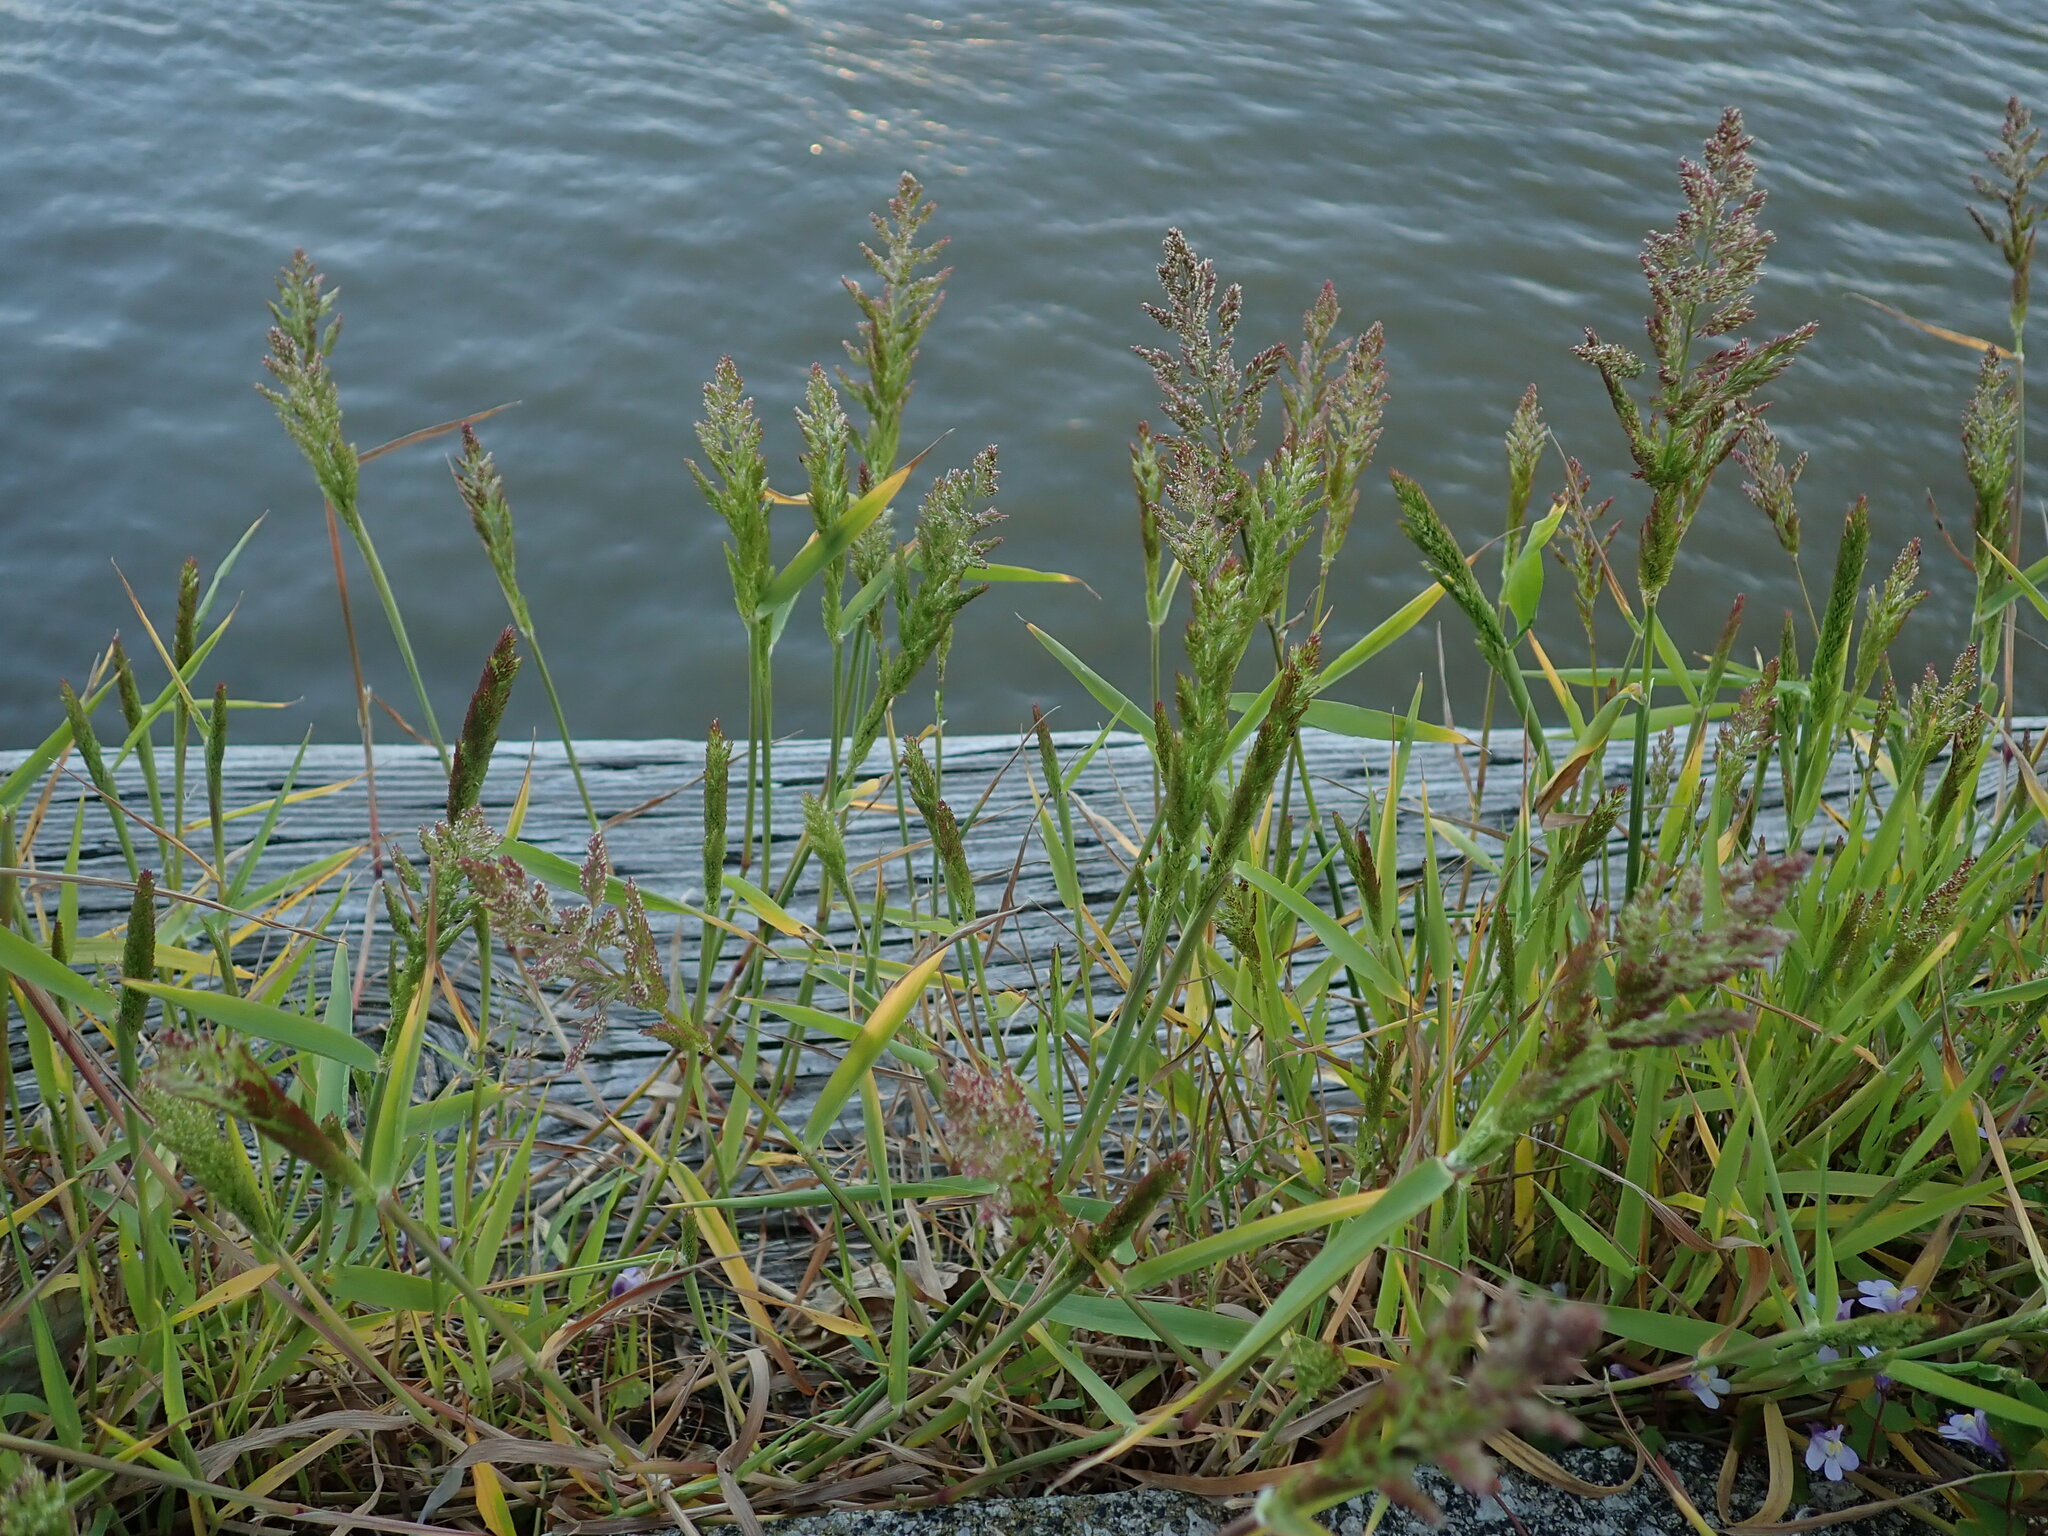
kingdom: Plantae
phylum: Tracheophyta
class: Liliopsida
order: Poales
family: Poaceae
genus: Polypogon
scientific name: Polypogon viridis
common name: Water bent
